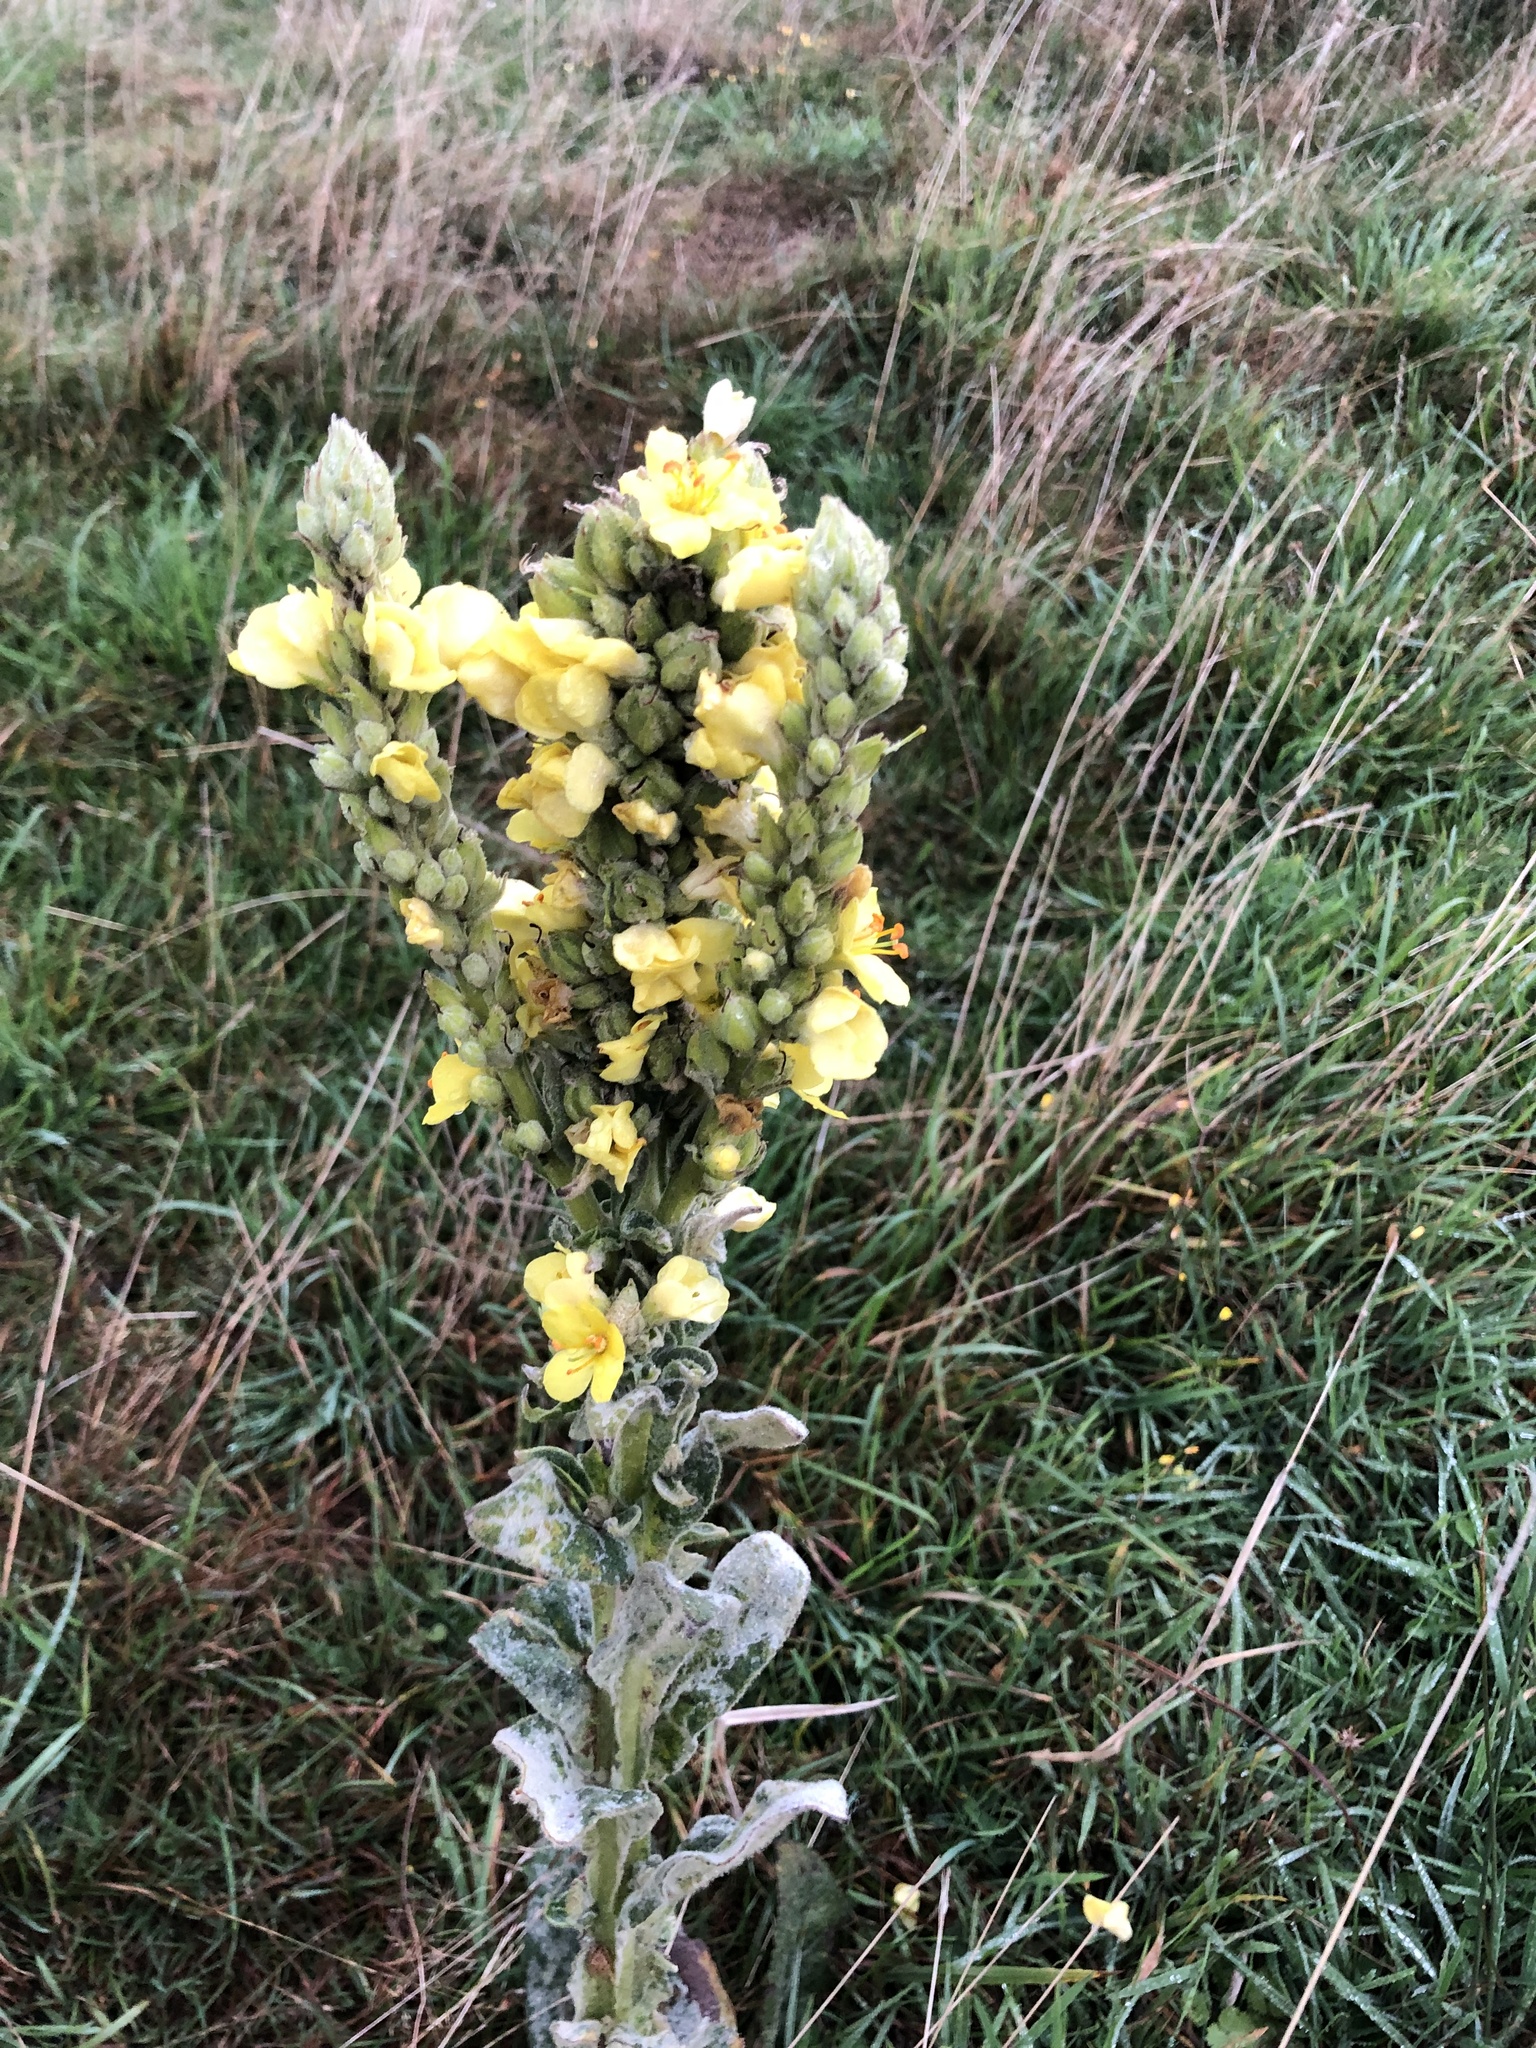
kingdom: Plantae
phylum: Tracheophyta
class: Magnoliopsida
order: Lamiales
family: Scrophulariaceae
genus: Verbascum
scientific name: Verbascum thapsus
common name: Common mullein
